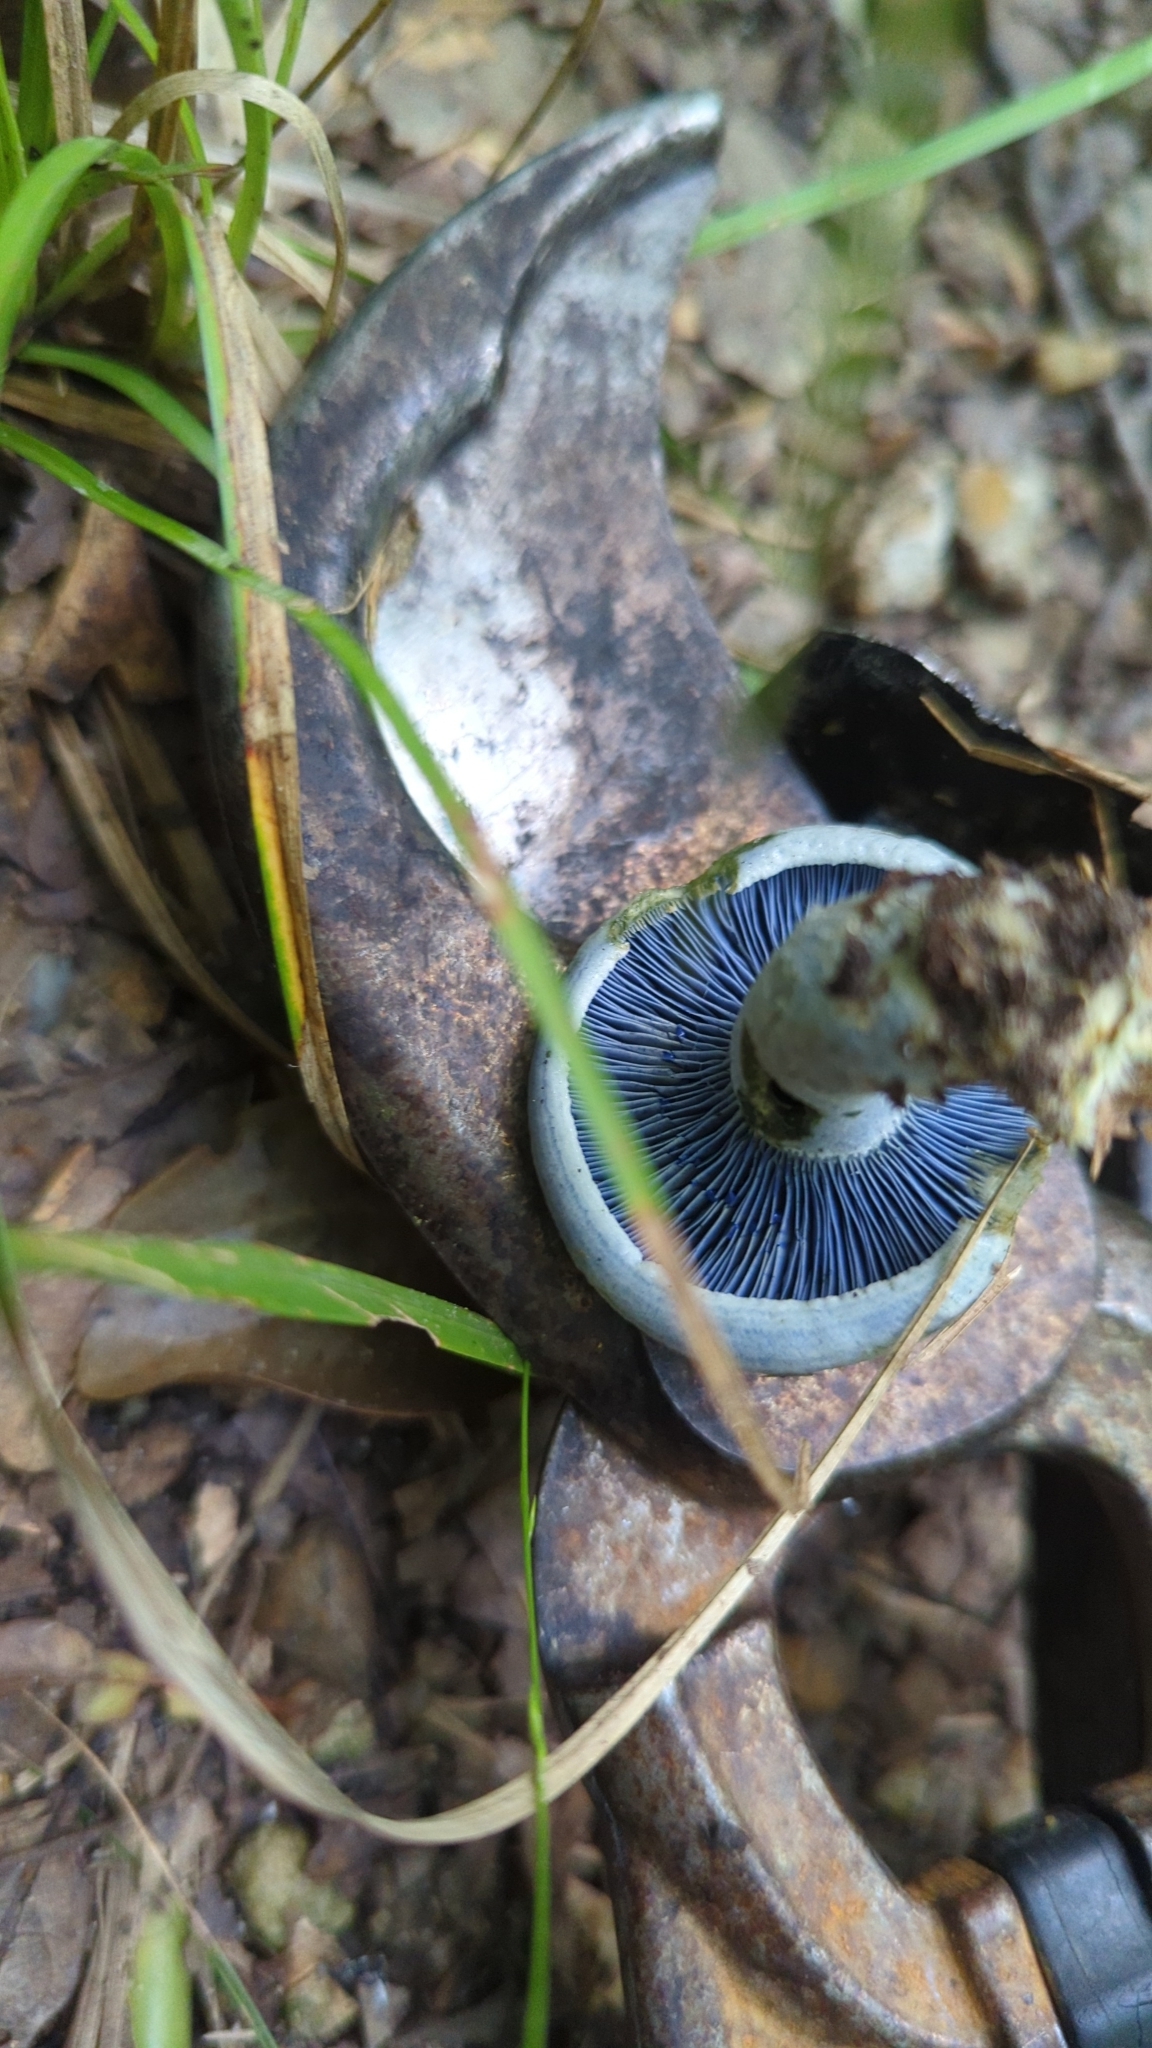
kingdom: Fungi
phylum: Basidiomycota
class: Agaricomycetes
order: Russulales
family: Russulaceae
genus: Lactarius
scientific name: Lactarius indigo
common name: Indigo milk cap
